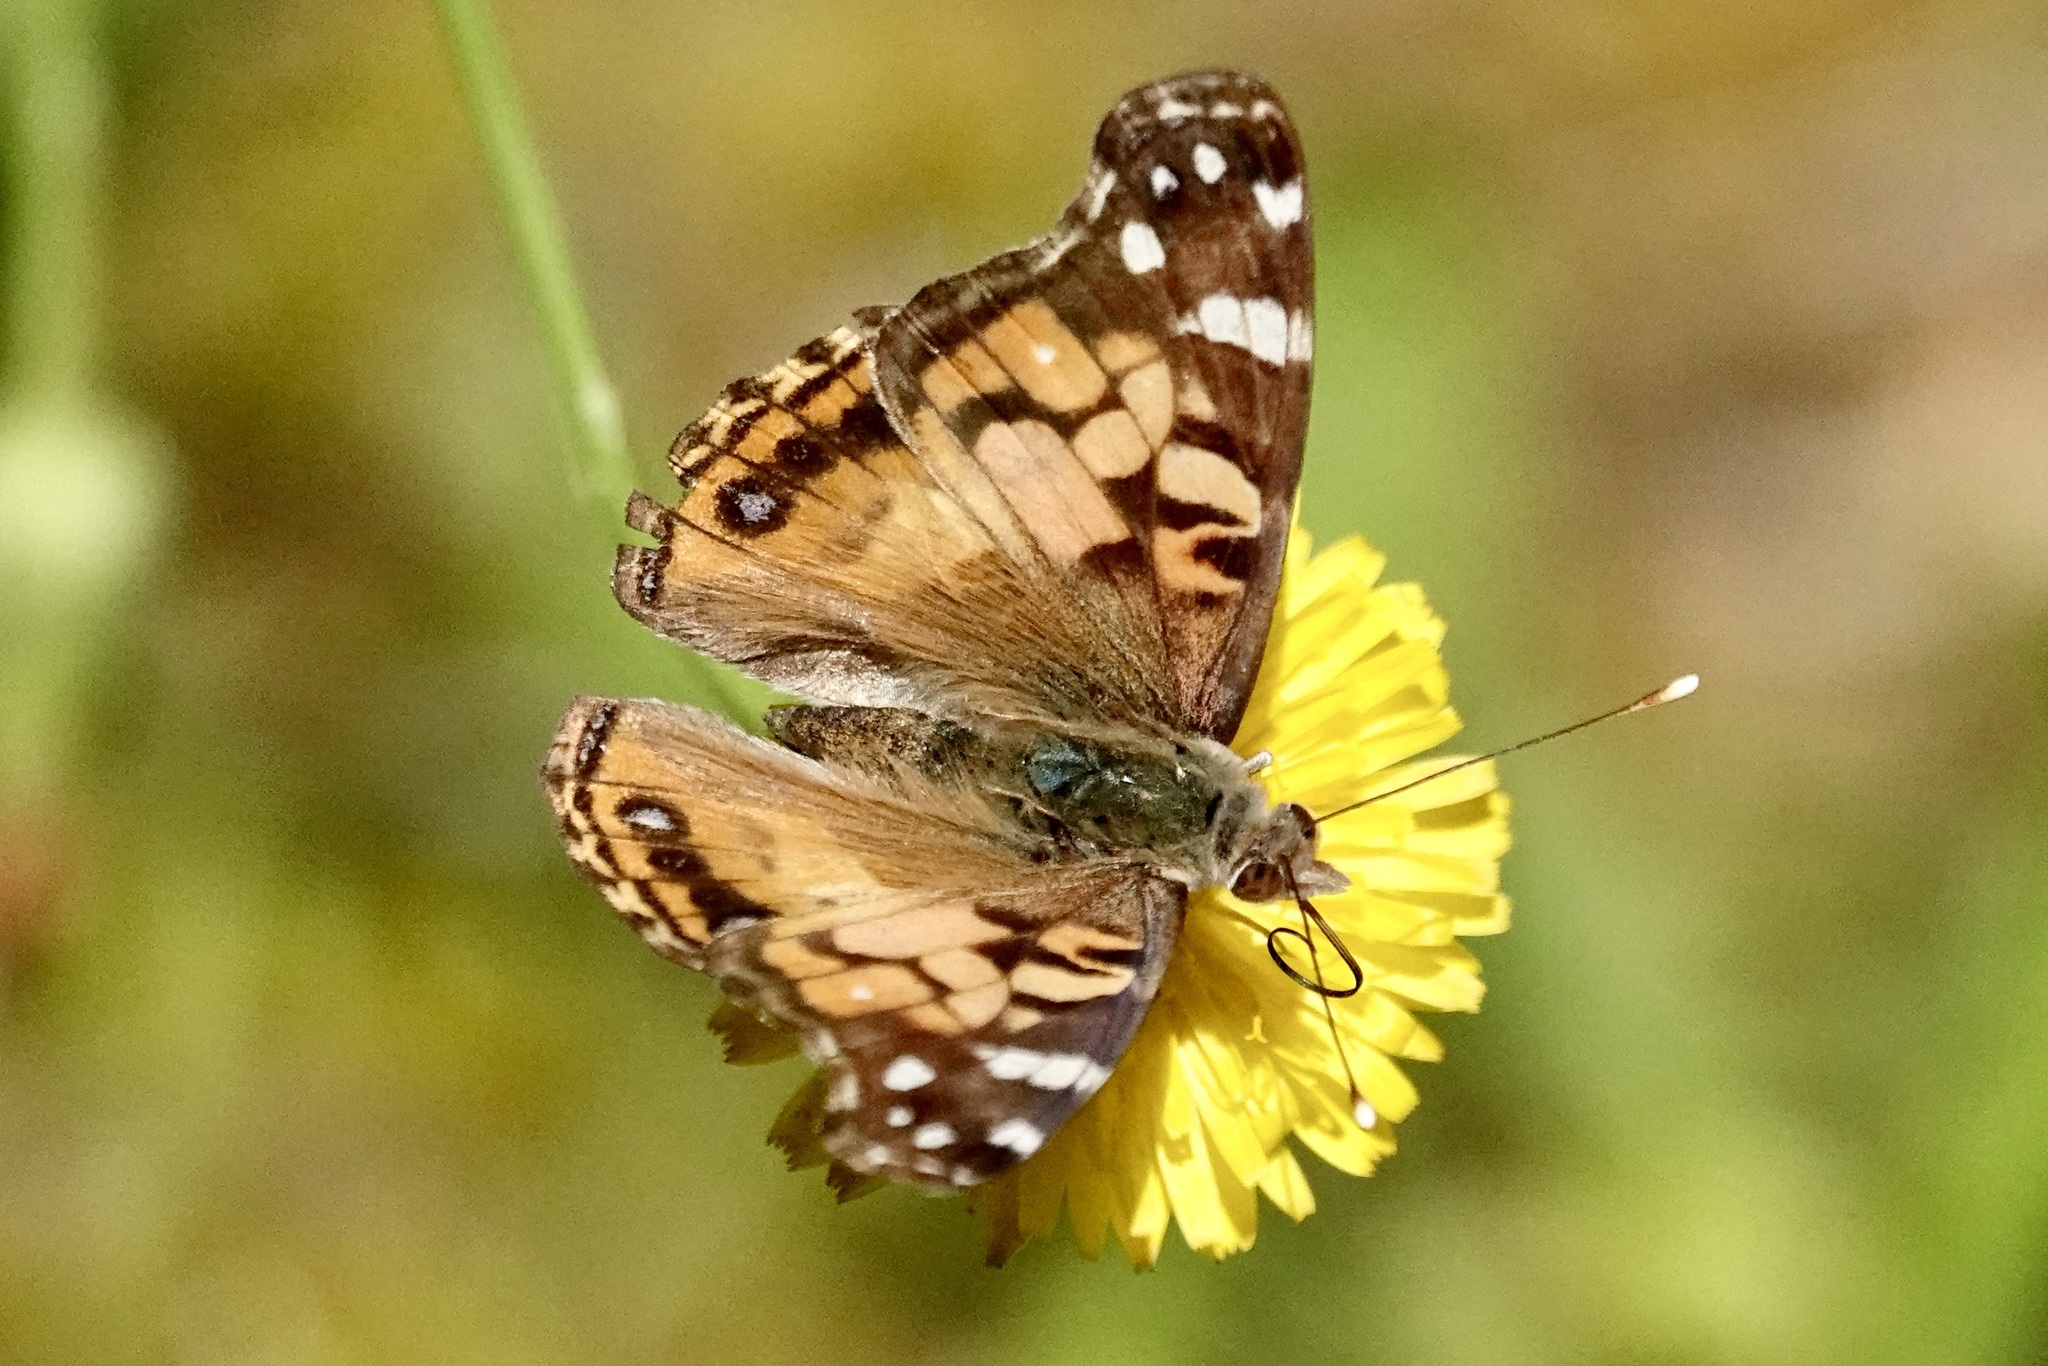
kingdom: Animalia
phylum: Arthropoda
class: Insecta
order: Lepidoptera
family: Nymphalidae
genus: Vanessa
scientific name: Vanessa virginiensis
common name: American lady
